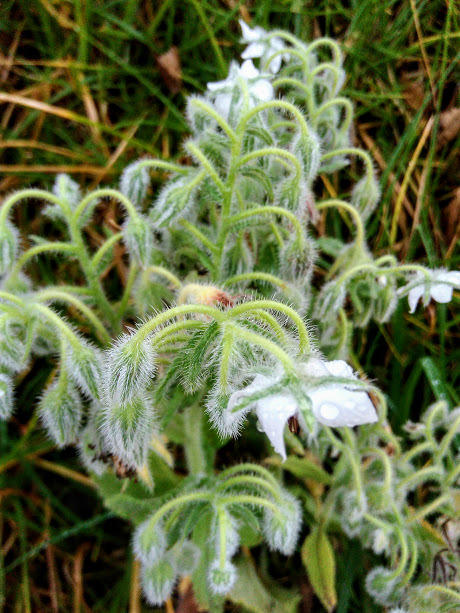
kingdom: Plantae
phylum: Tracheophyta
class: Magnoliopsida
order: Boraginales
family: Boraginaceae
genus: Borago
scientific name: Borago officinalis
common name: Borage
